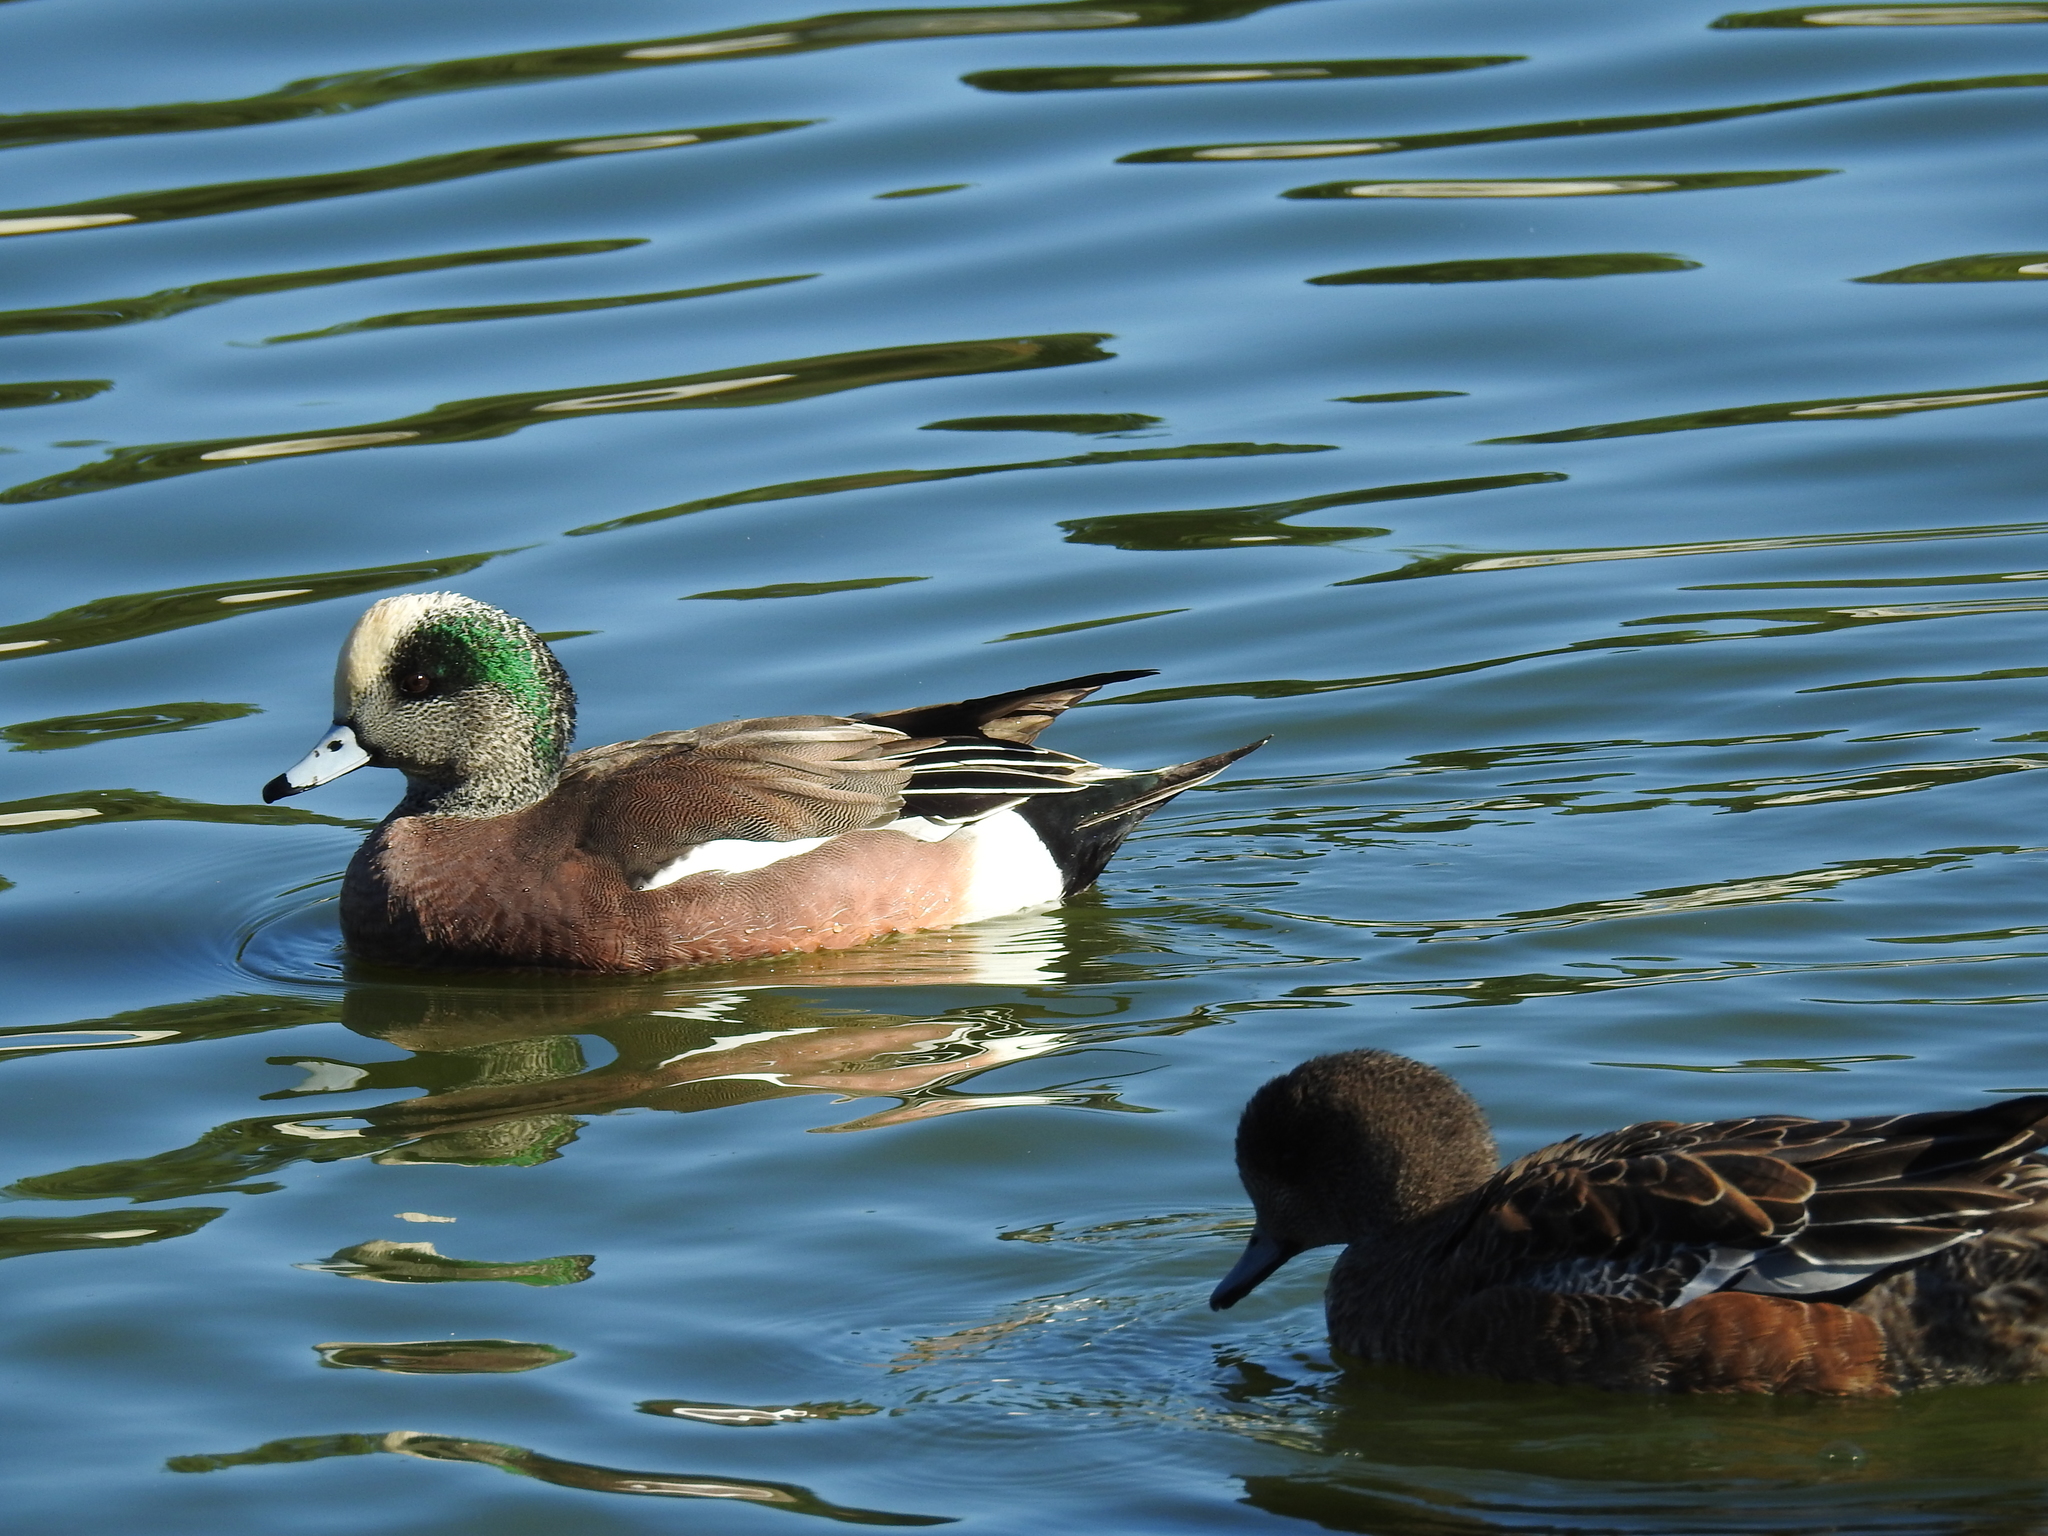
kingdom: Animalia
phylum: Chordata
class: Aves
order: Anseriformes
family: Anatidae
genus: Mareca
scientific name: Mareca americana
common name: American wigeon
